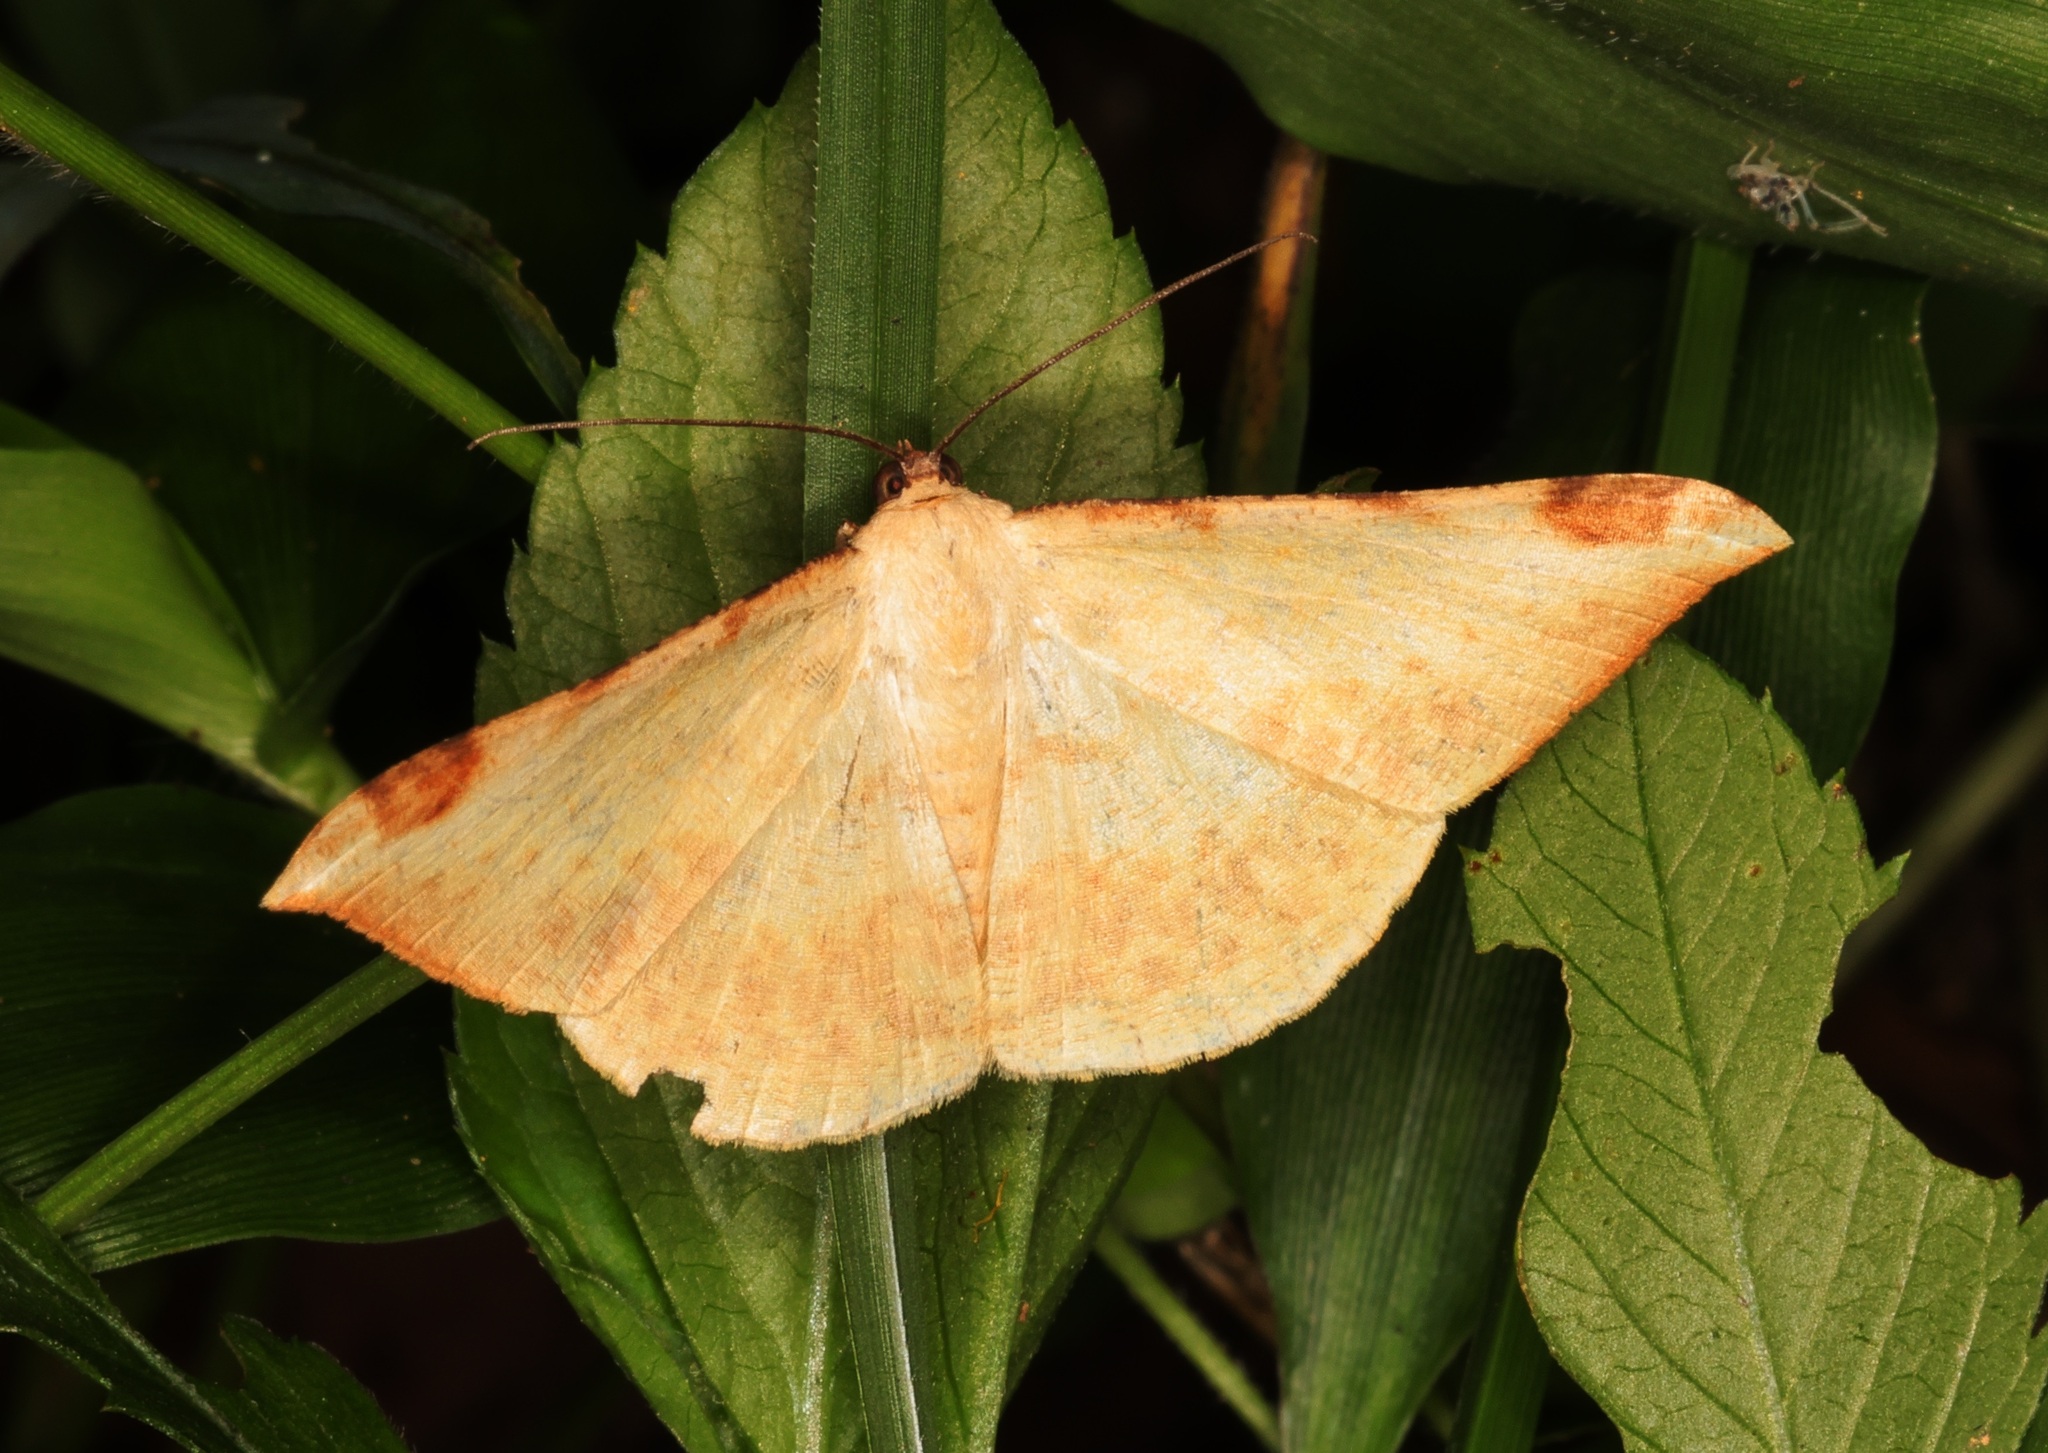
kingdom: Animalia
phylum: Arthropoda
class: Insecta
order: Lepidoptera
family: Geometridae
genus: Luxiaria
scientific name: Luxiaria phyllosaria
